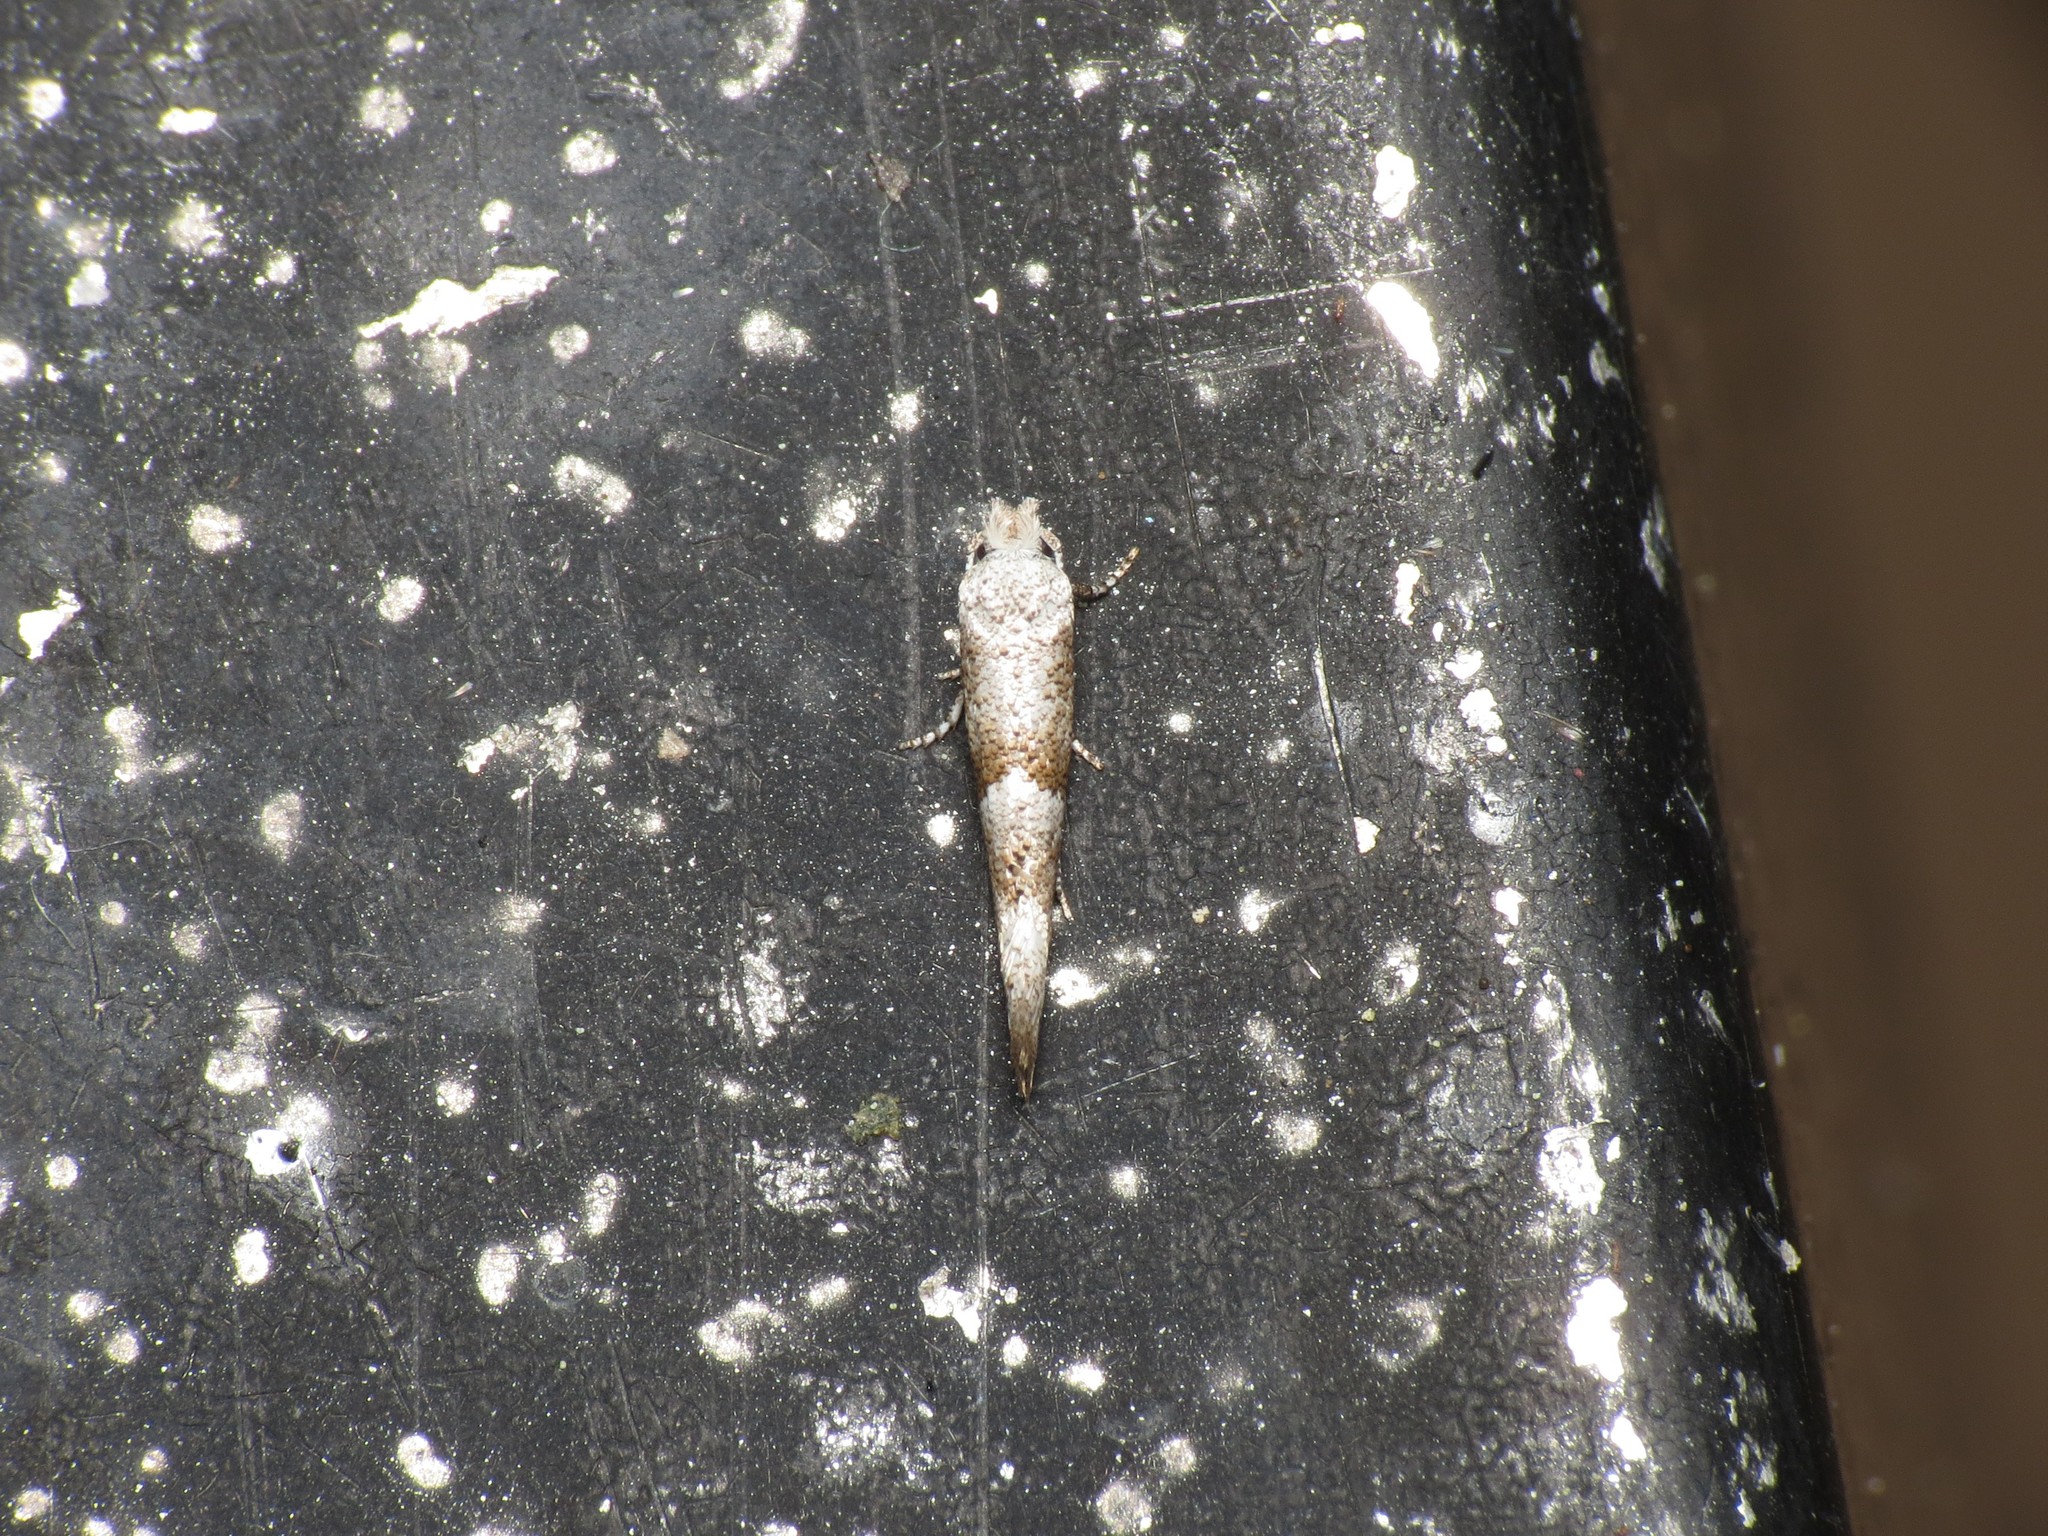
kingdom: Animalia
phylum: Arthropoda
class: Insecta
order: Lepidoptera
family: Yponomeutidae
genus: Cedestis
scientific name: Cedestis subfasciella
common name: Brown pine ermel
